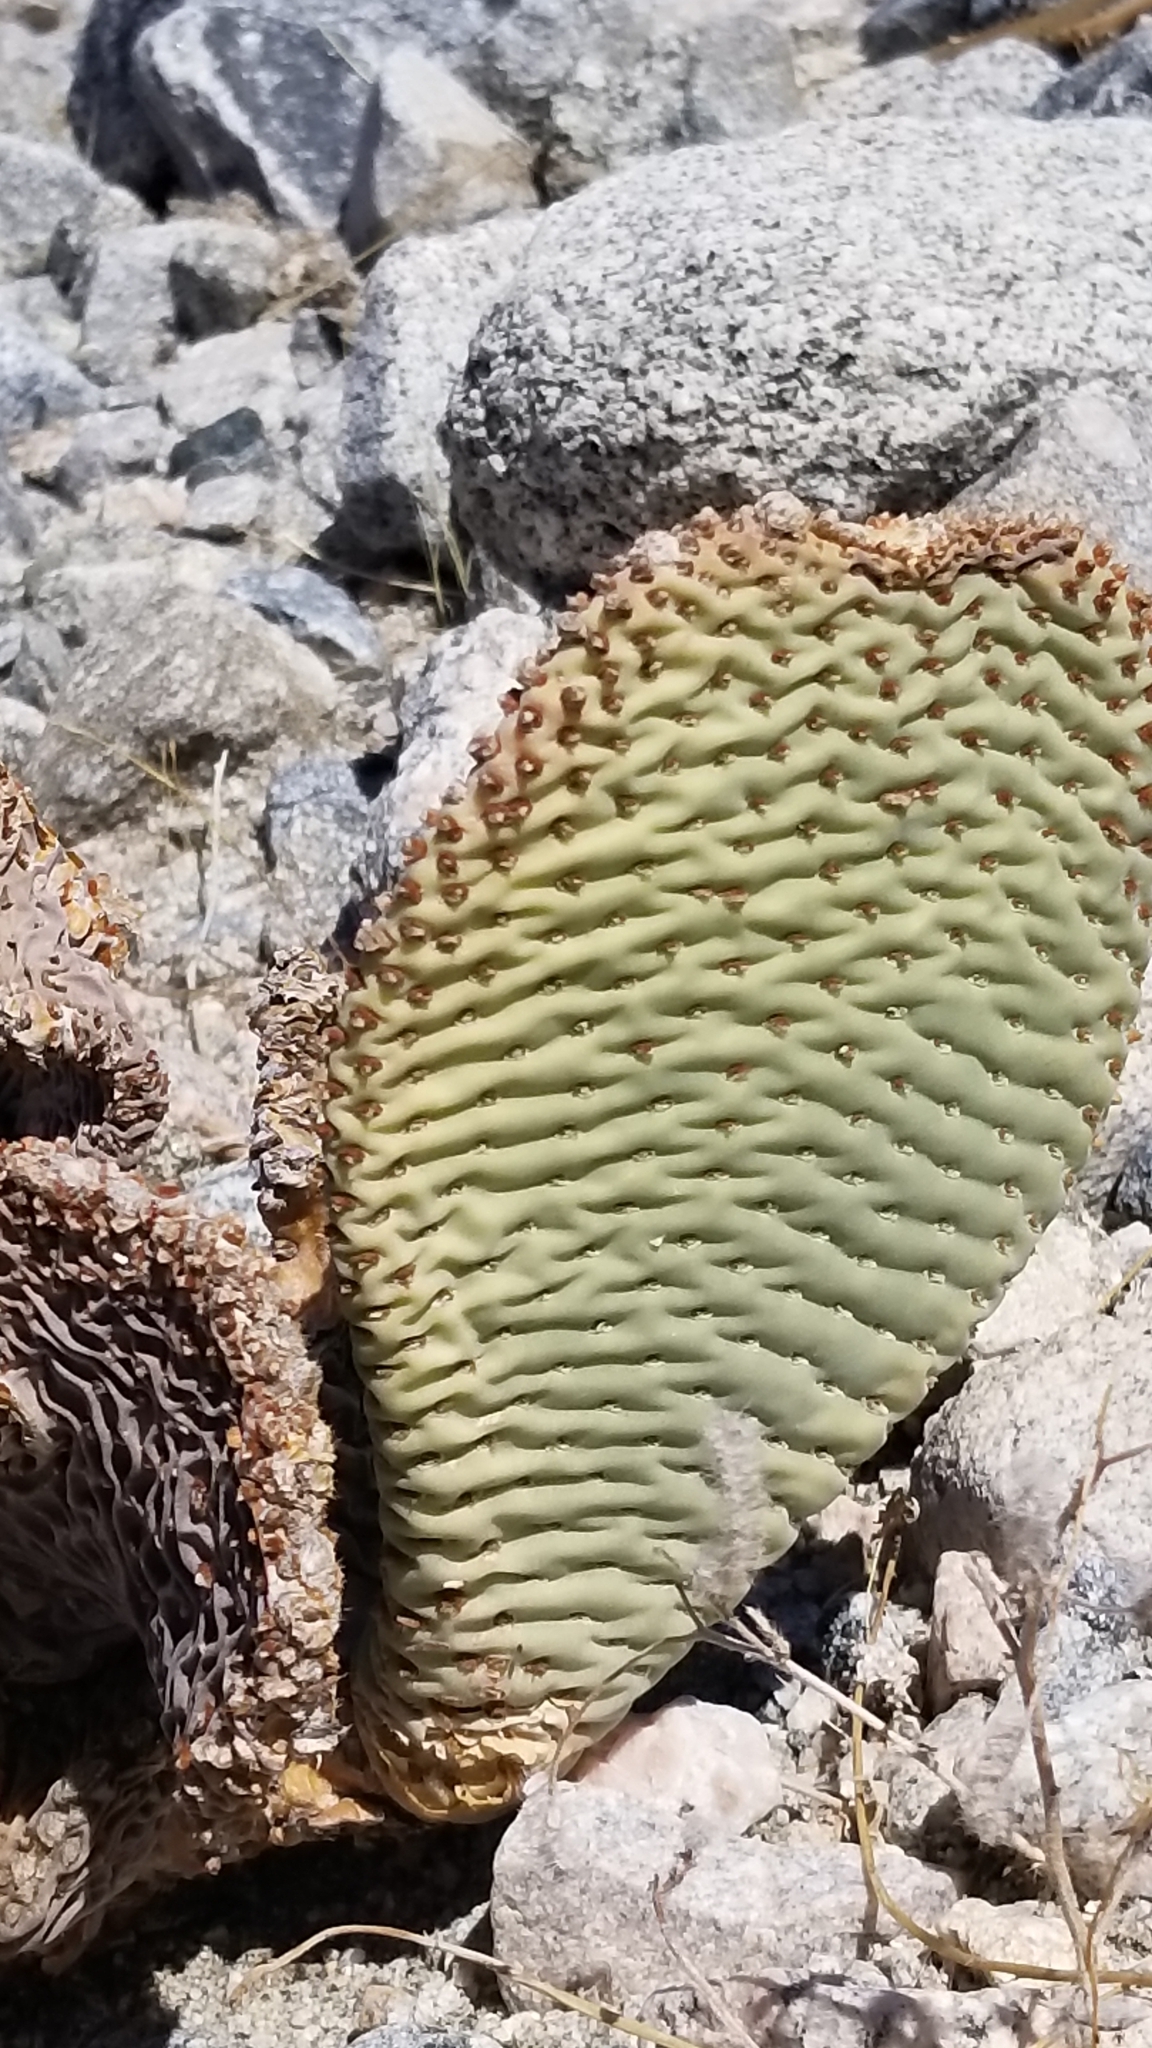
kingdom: Plantae
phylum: Tracheophyta
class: Magnoliopsida
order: Caryophyllales
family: Cactaceae
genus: Opuntia
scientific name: Opuntia basilaris
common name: Beavertail prickly-pear
